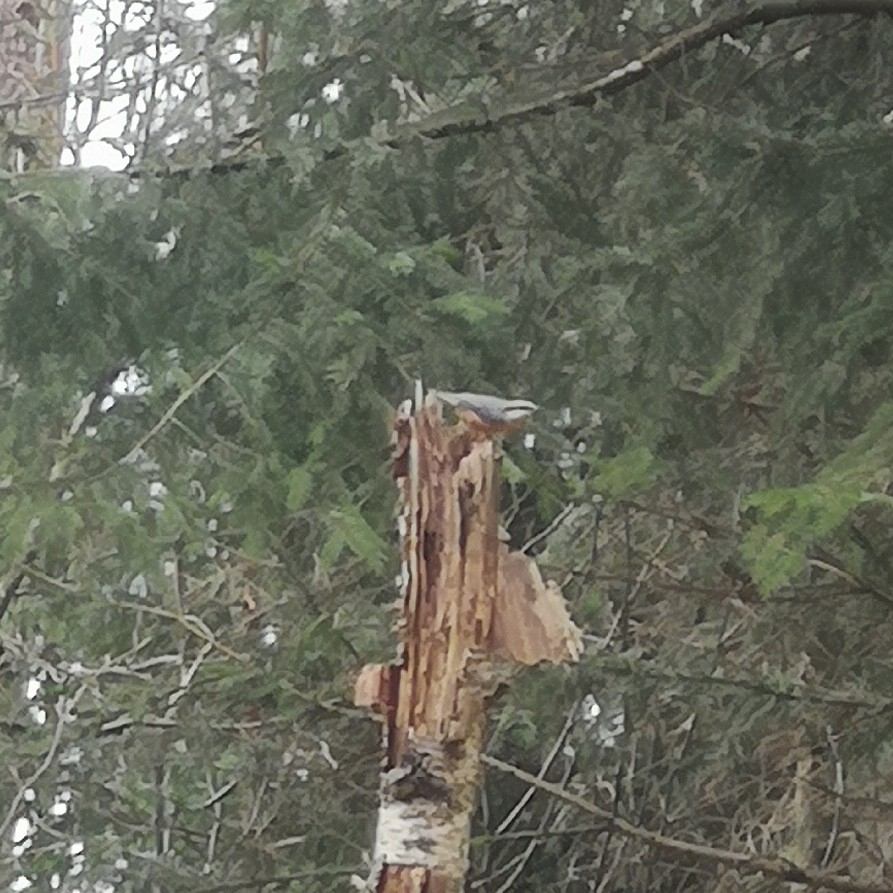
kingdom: Animalia
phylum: Chordata
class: Aves
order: Passeriformes
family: Sittidae
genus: Sitta
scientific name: Sitta europaea
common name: Eurasian nuthatch
